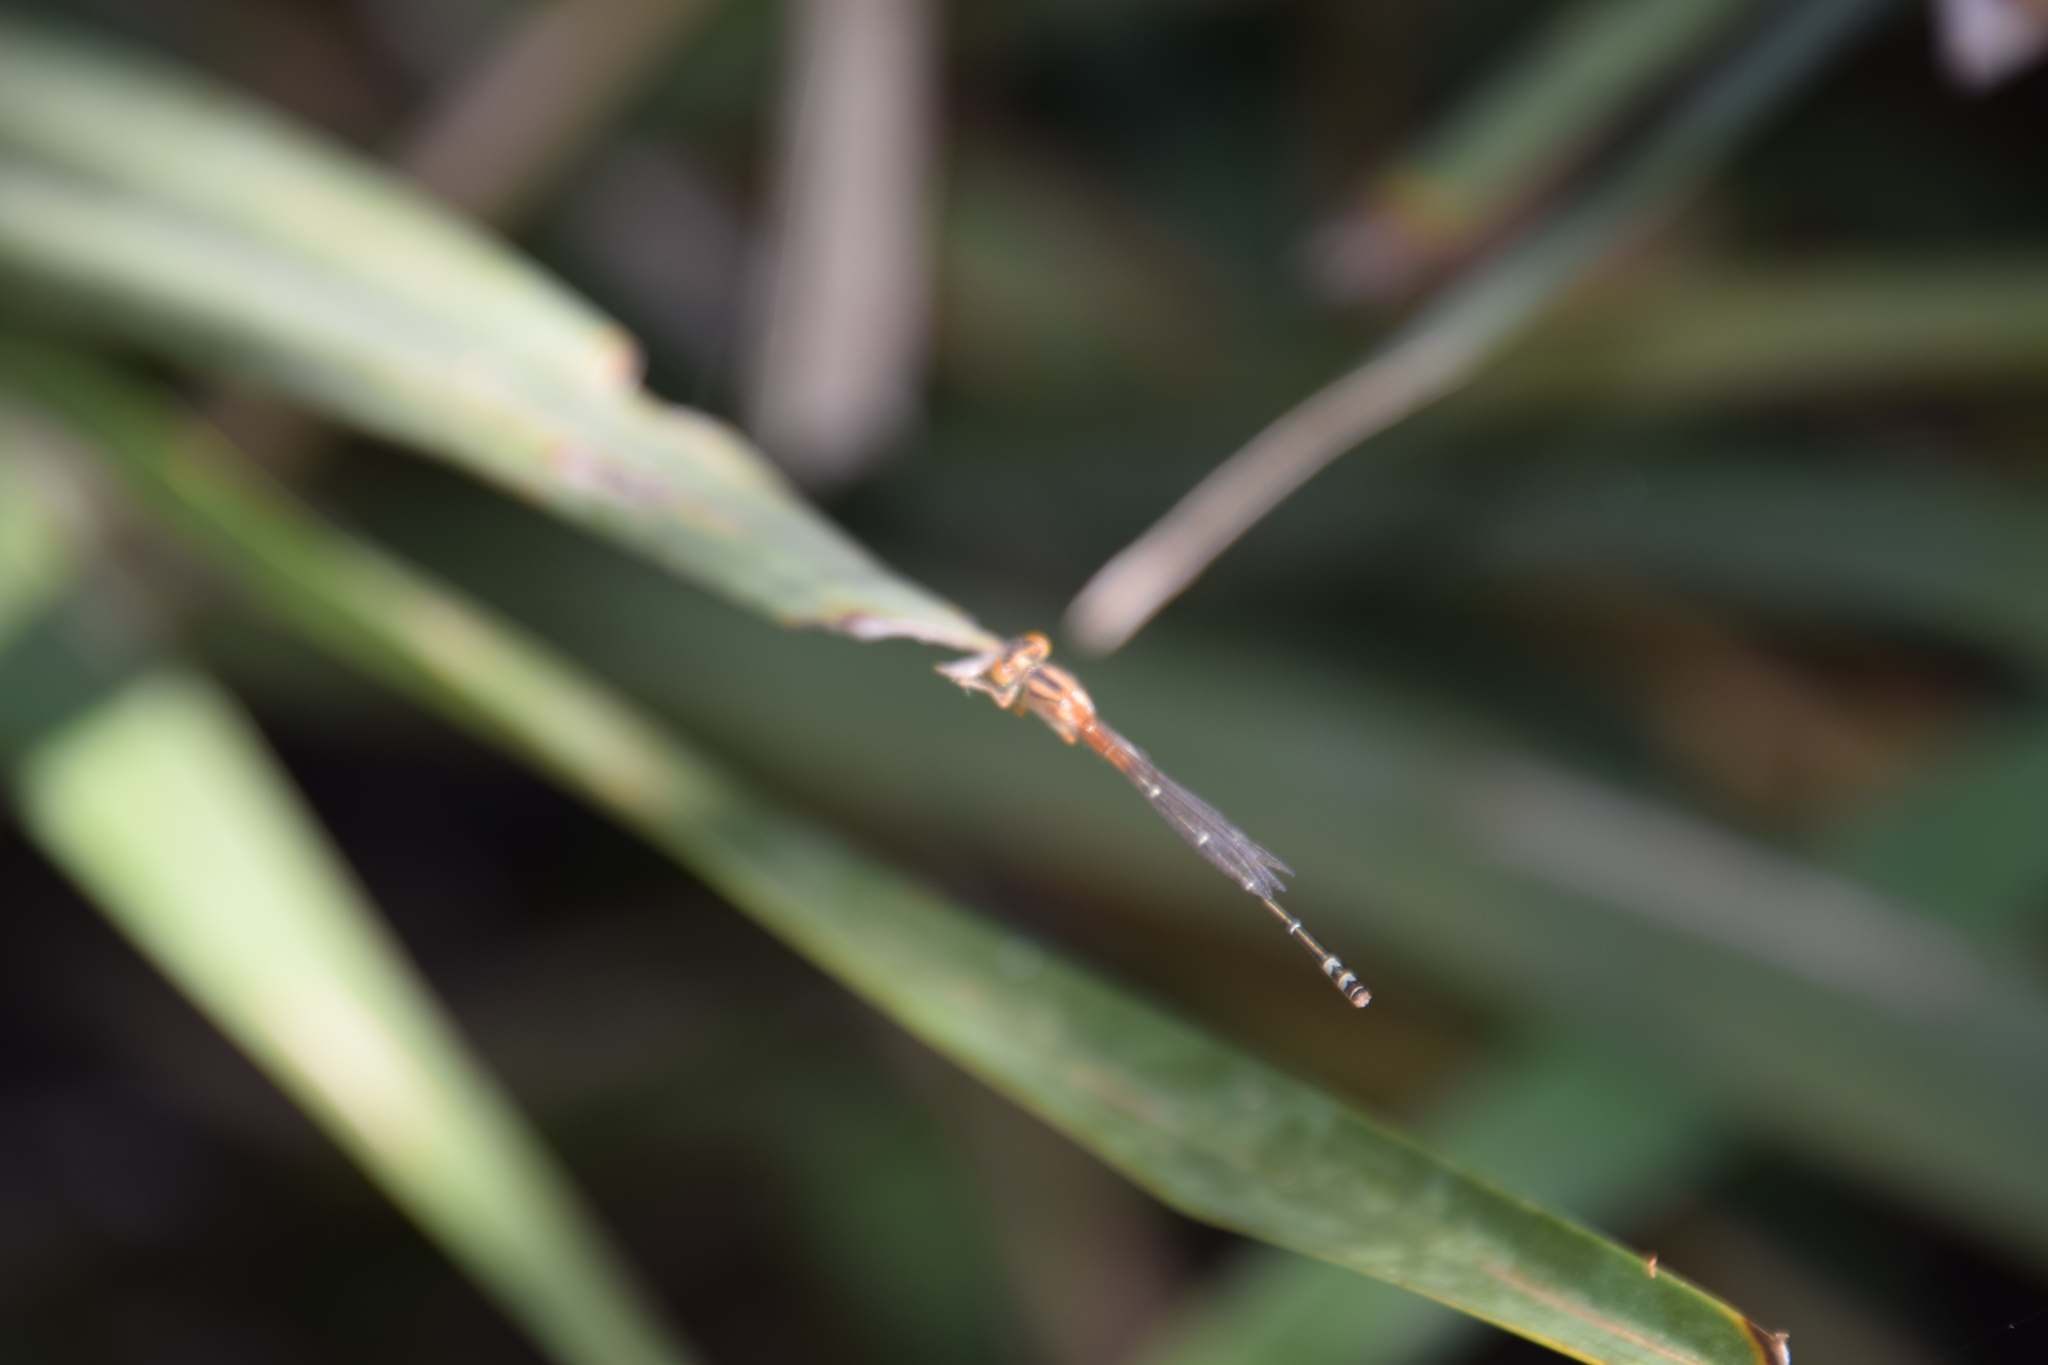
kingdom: Animalia
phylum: Arthropoda
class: Insecta
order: Odonata
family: Coenagrionidae
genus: Xanthagrion
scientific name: Xanthagrion erythroneurum
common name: Red and blue damsel
